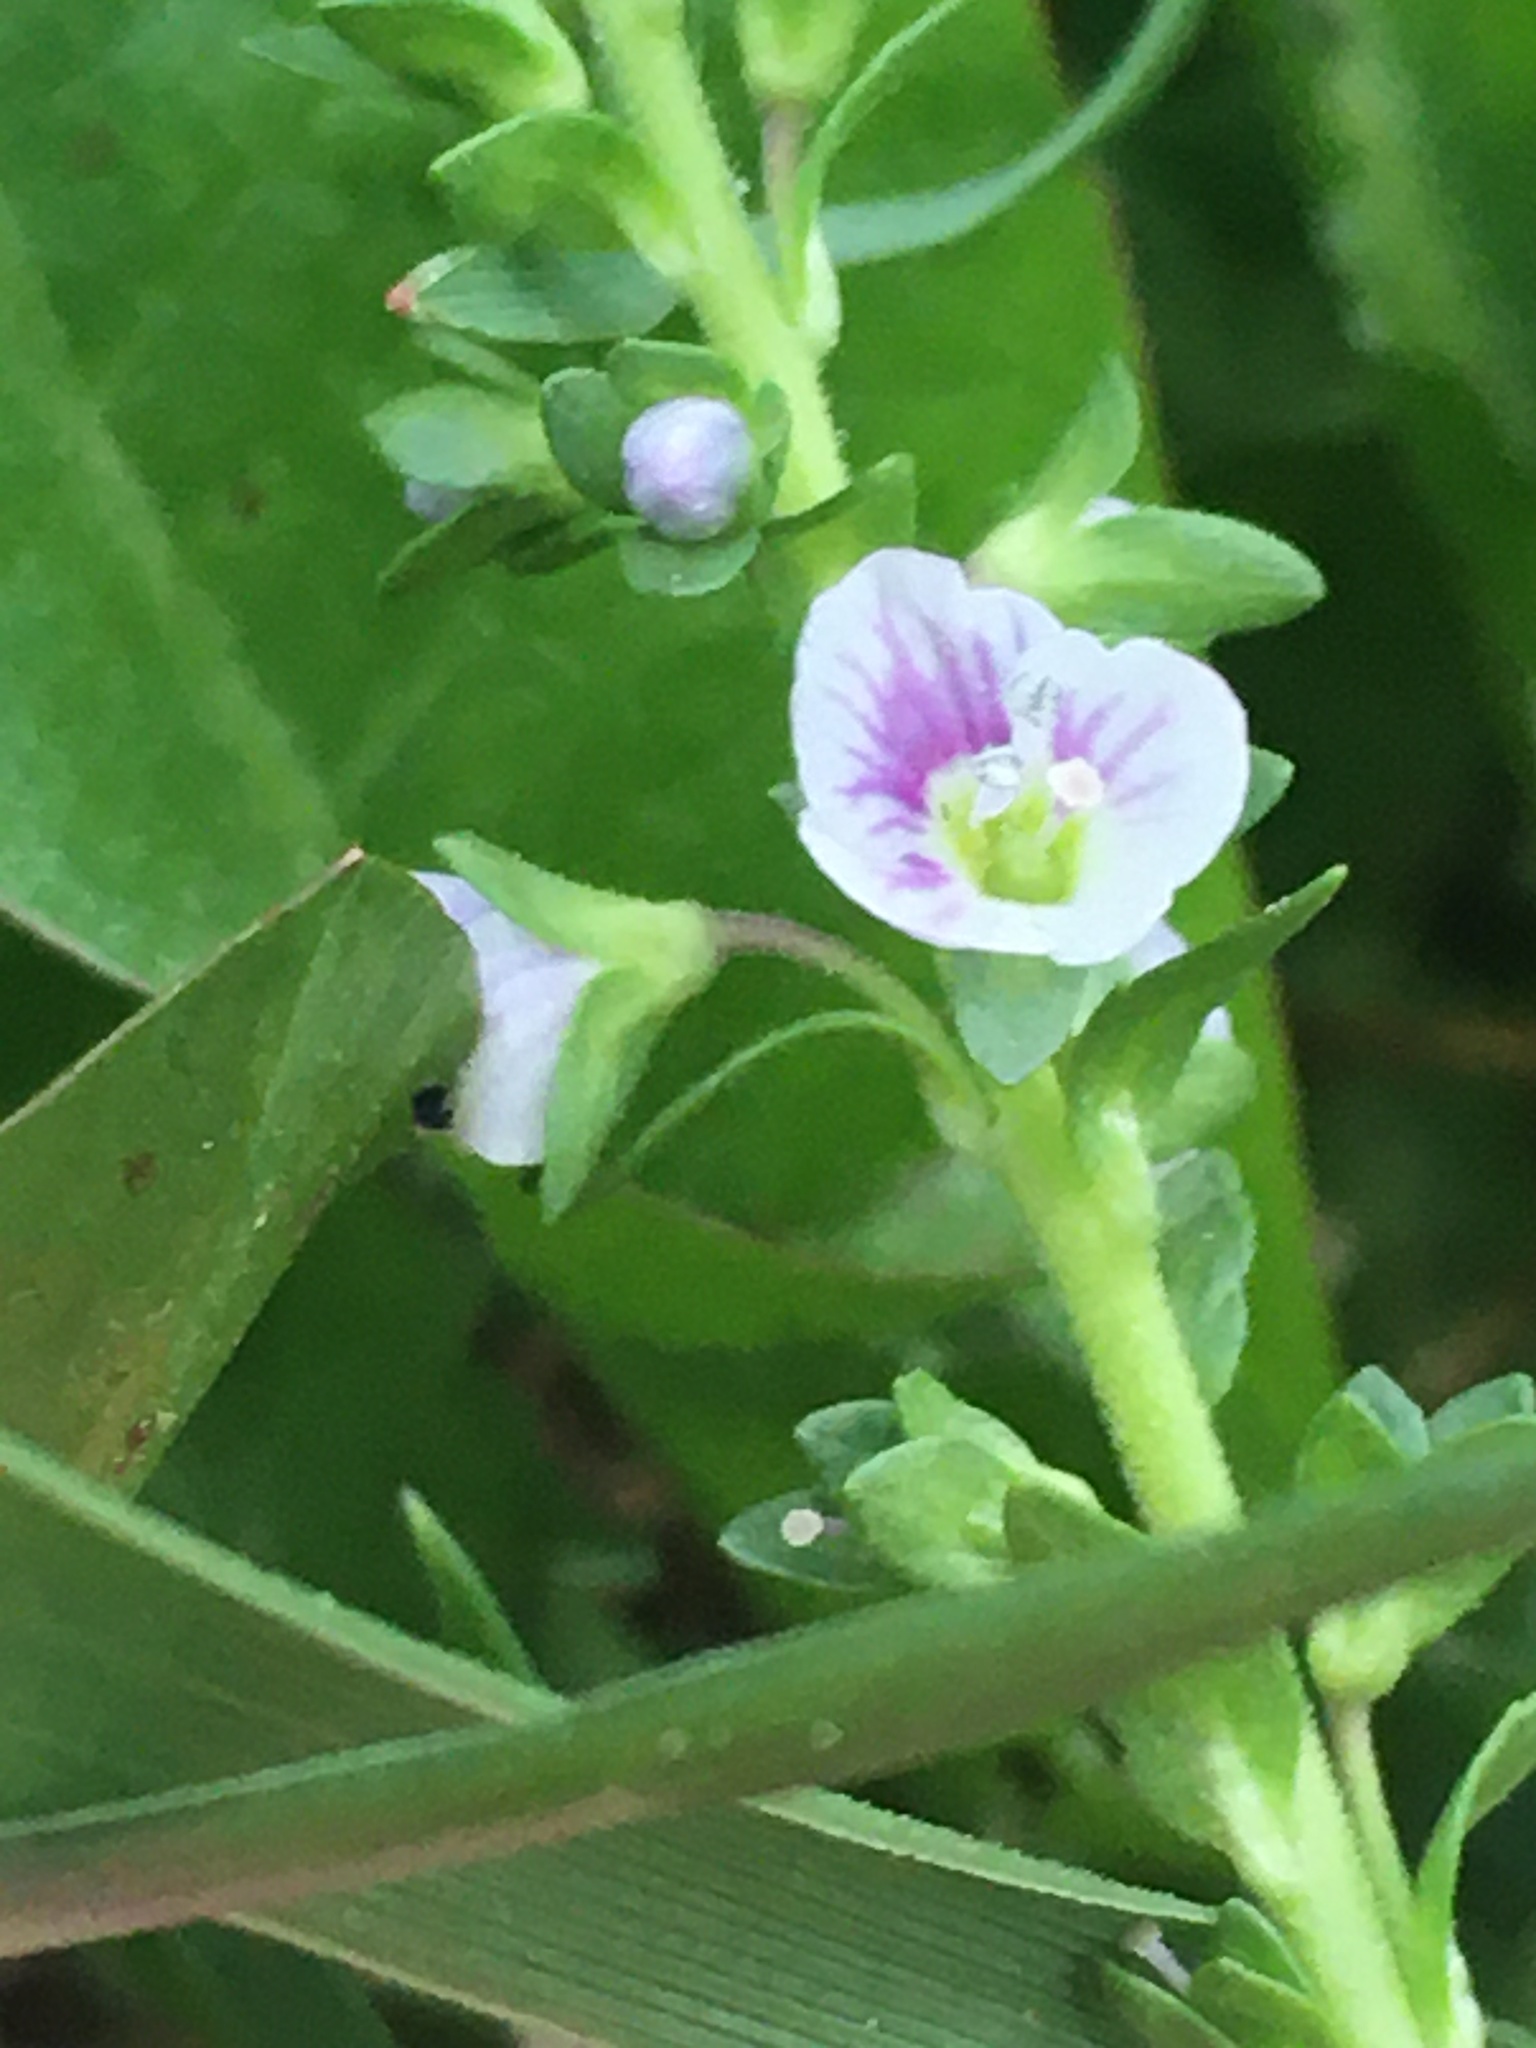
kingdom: Plantae
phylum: Tracheophyta
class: Magnoliopsida
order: Lamiales
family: Plantaginaceae
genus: Veronica
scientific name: Veronica serpyllifolia
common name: Thyme-leaved speedwell
